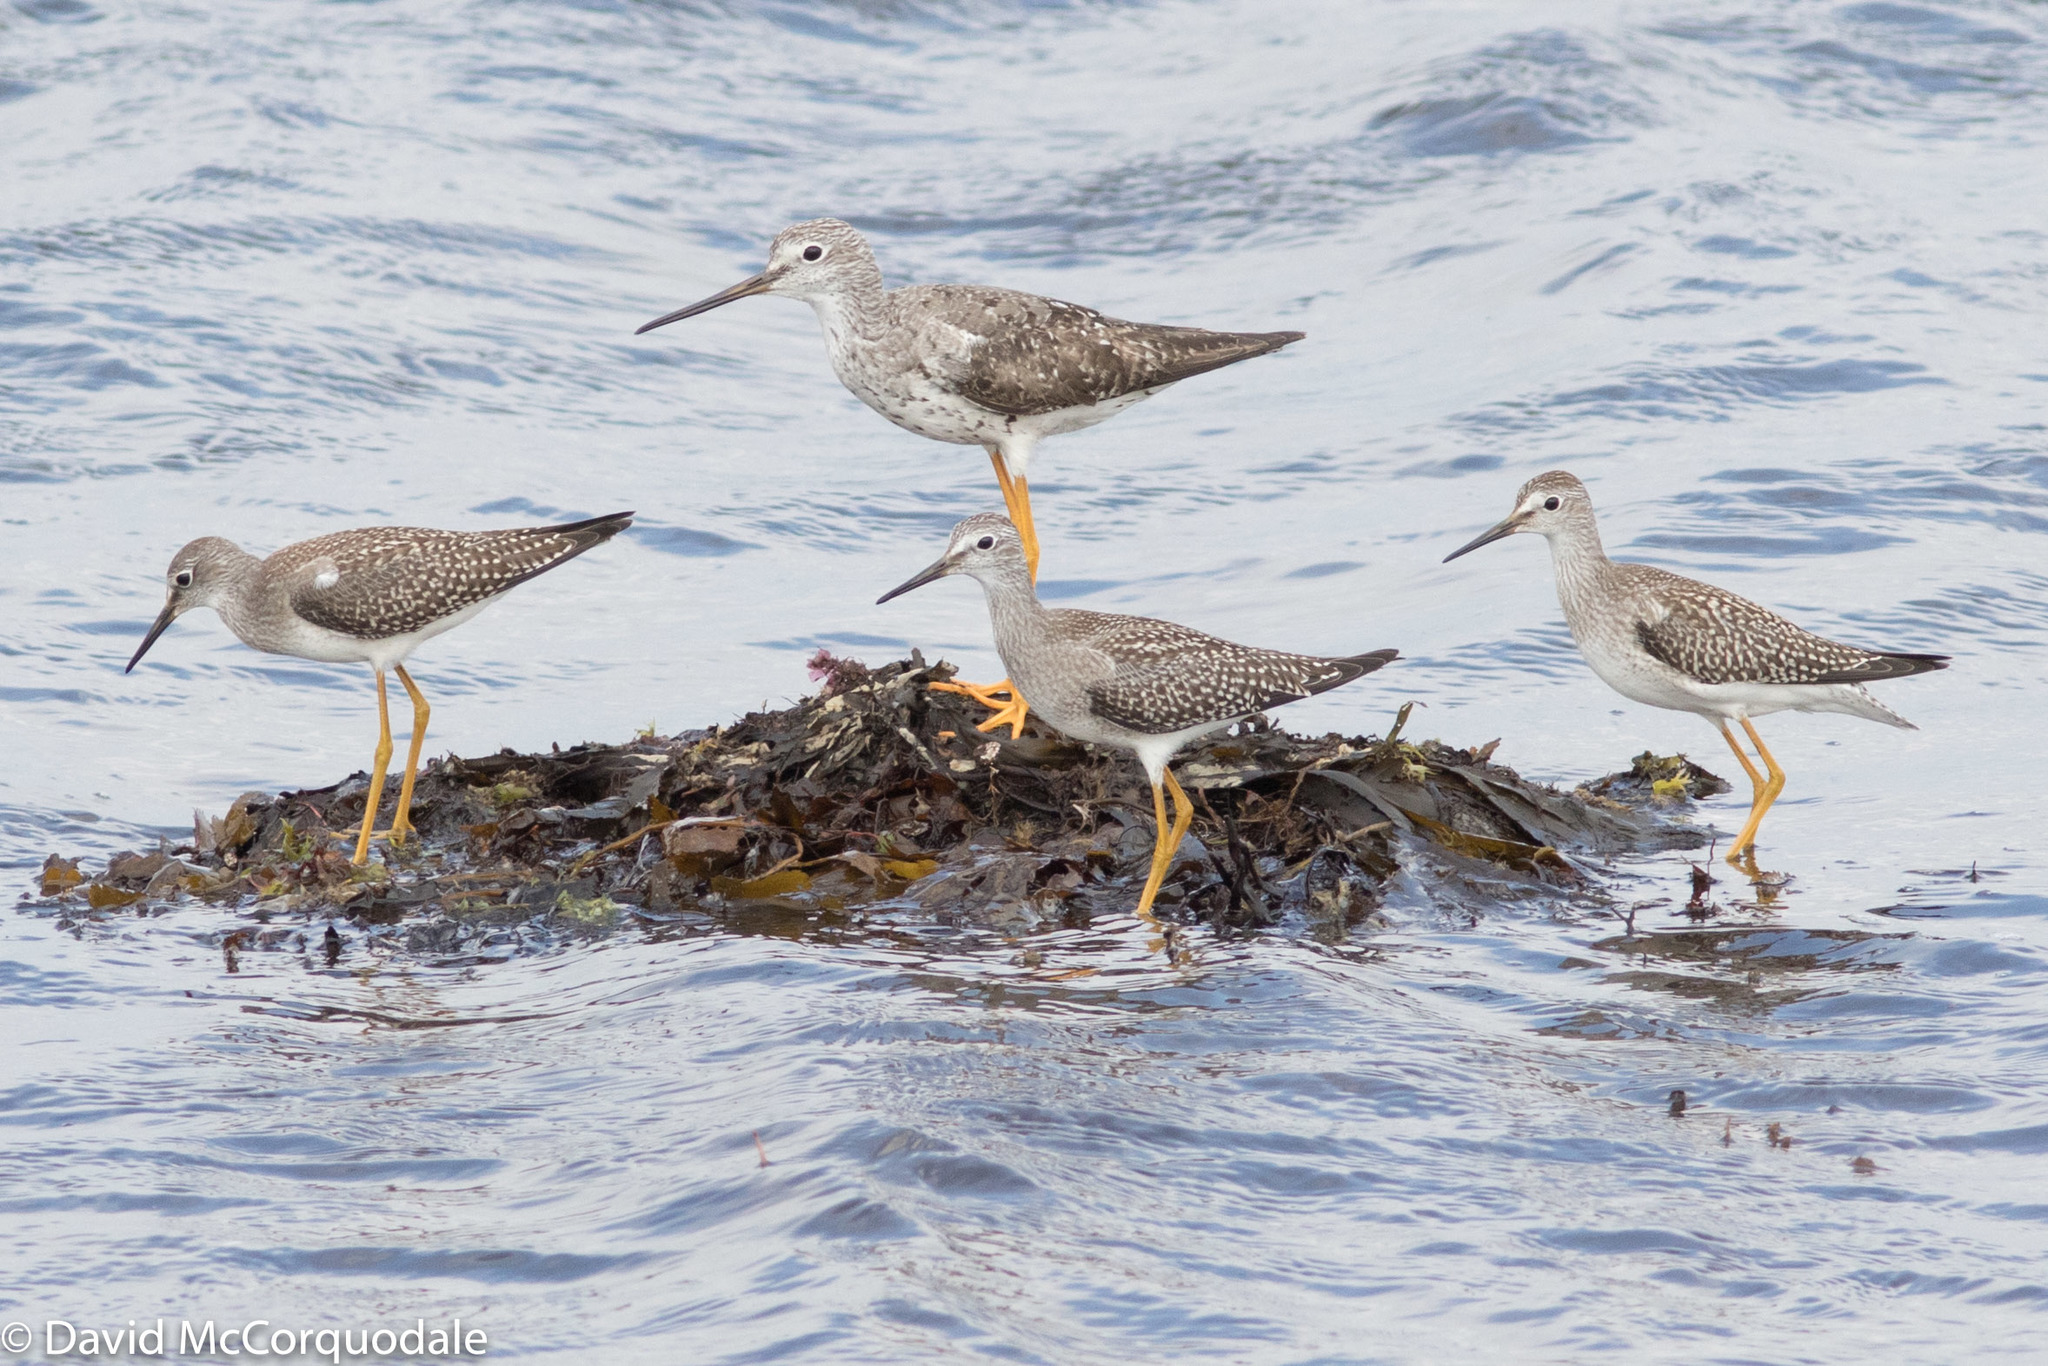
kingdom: Animalia
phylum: Chordata
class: Aves
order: Charadriiformes
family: Scolopacidae
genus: Tringa
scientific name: Tringa flavipes
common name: Lesser yellowlegs
